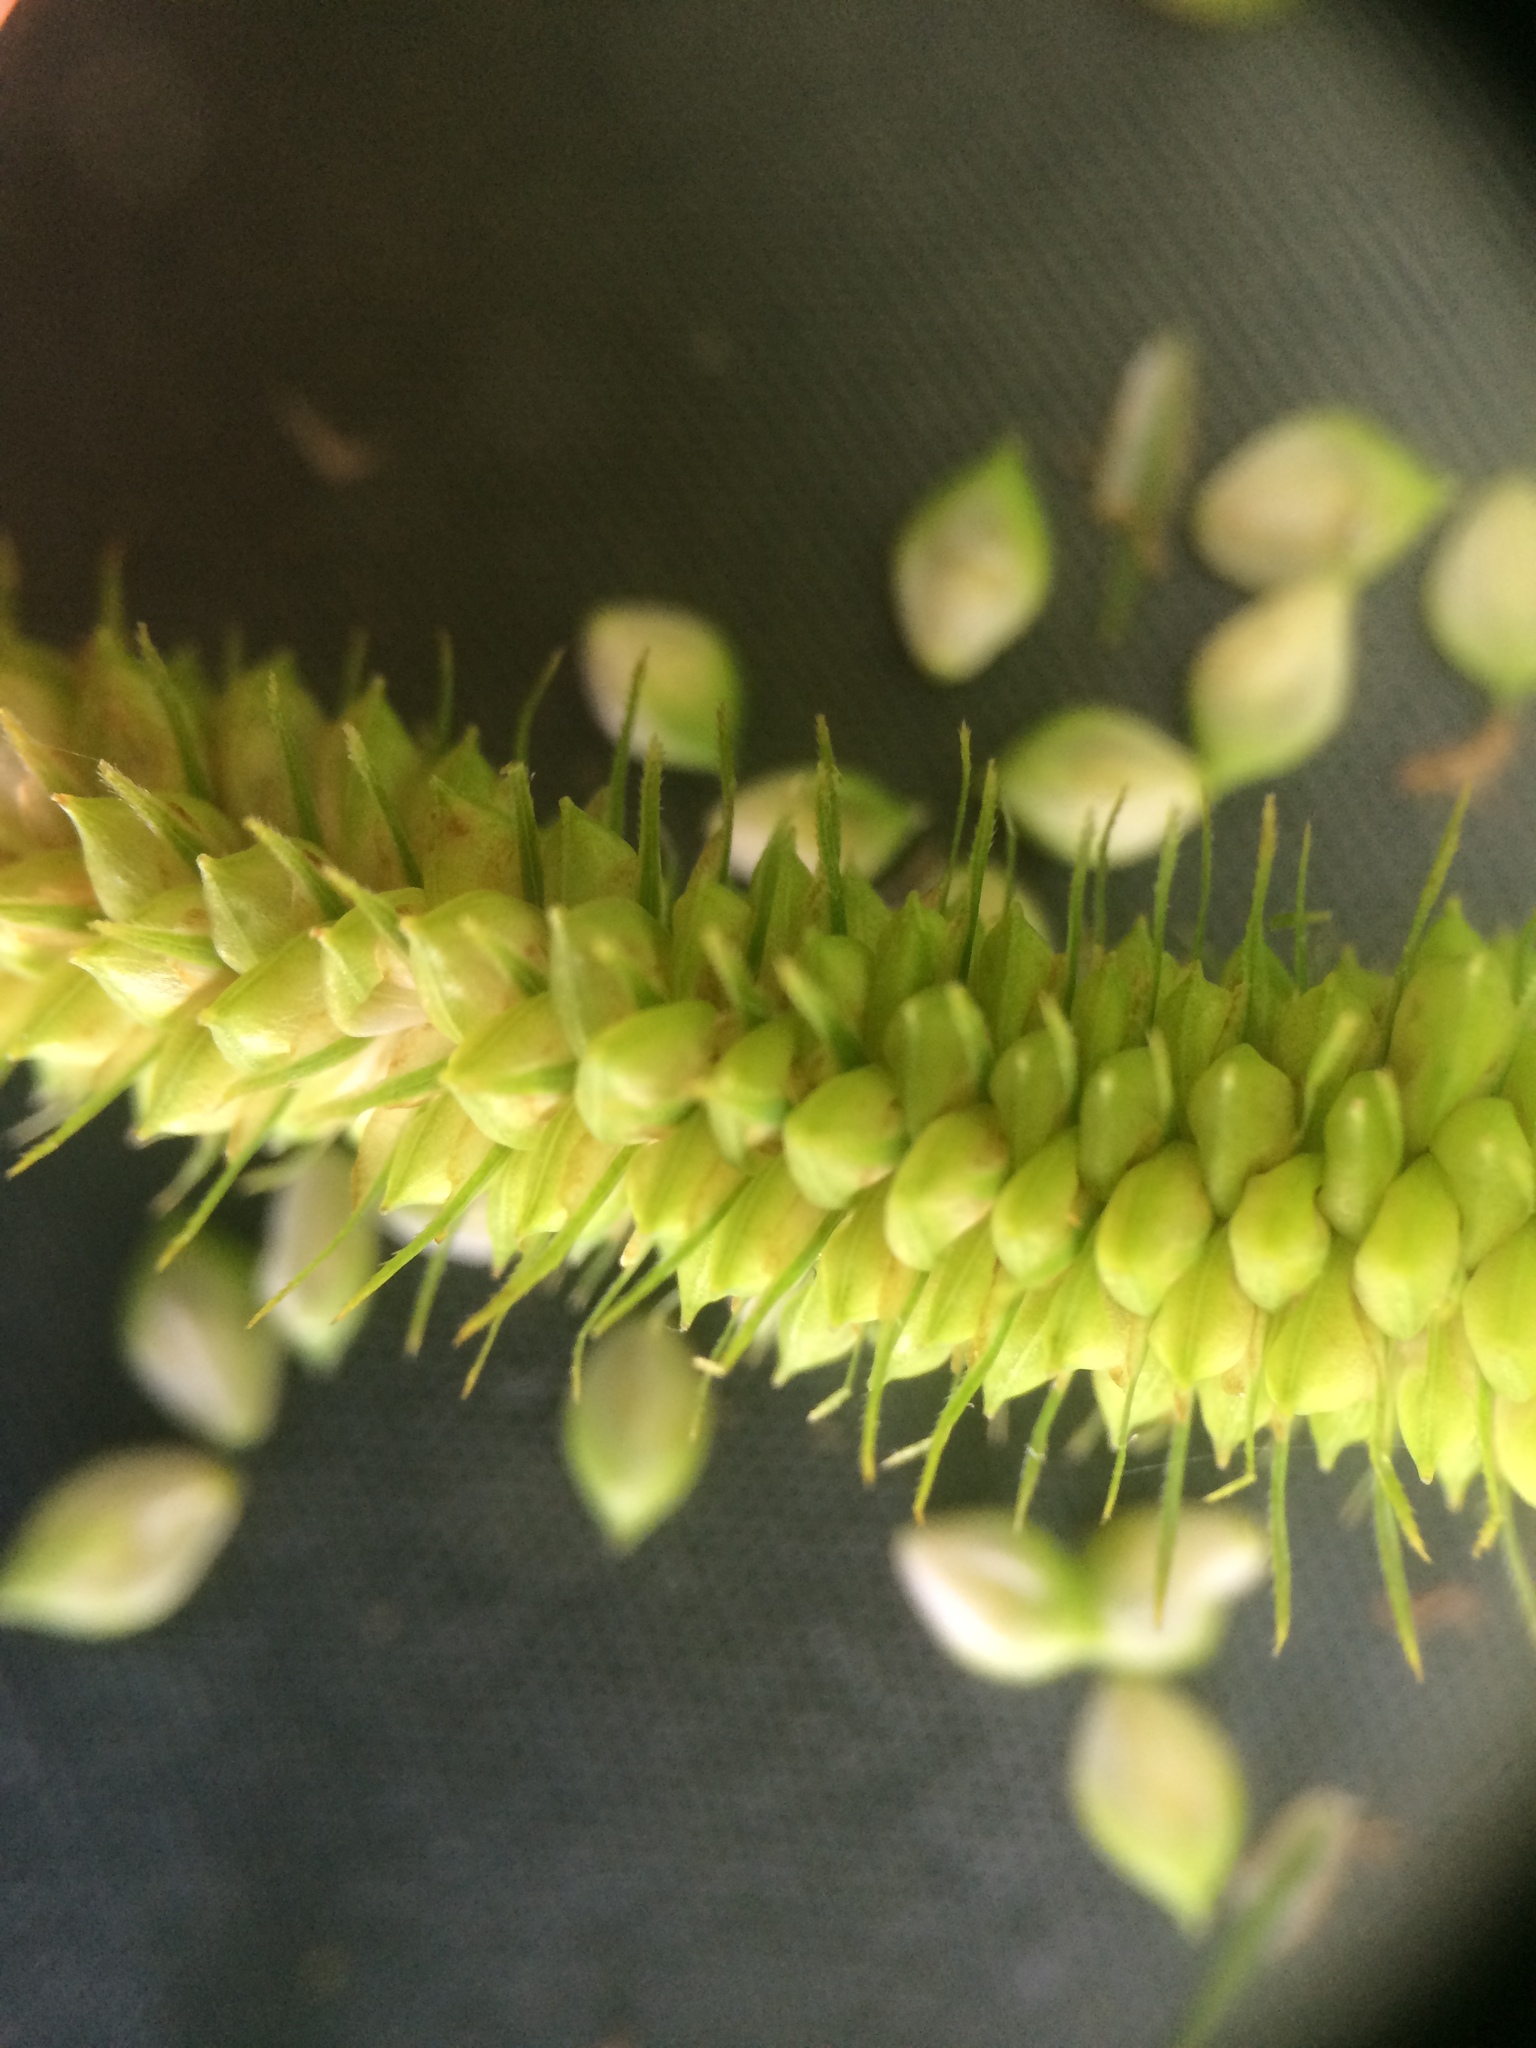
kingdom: Plantae
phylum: Tracheophyta
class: Liliopsida
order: Poales
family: Cyperaceae
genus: Carex
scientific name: Carex gynandra
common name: Nodding sedge
